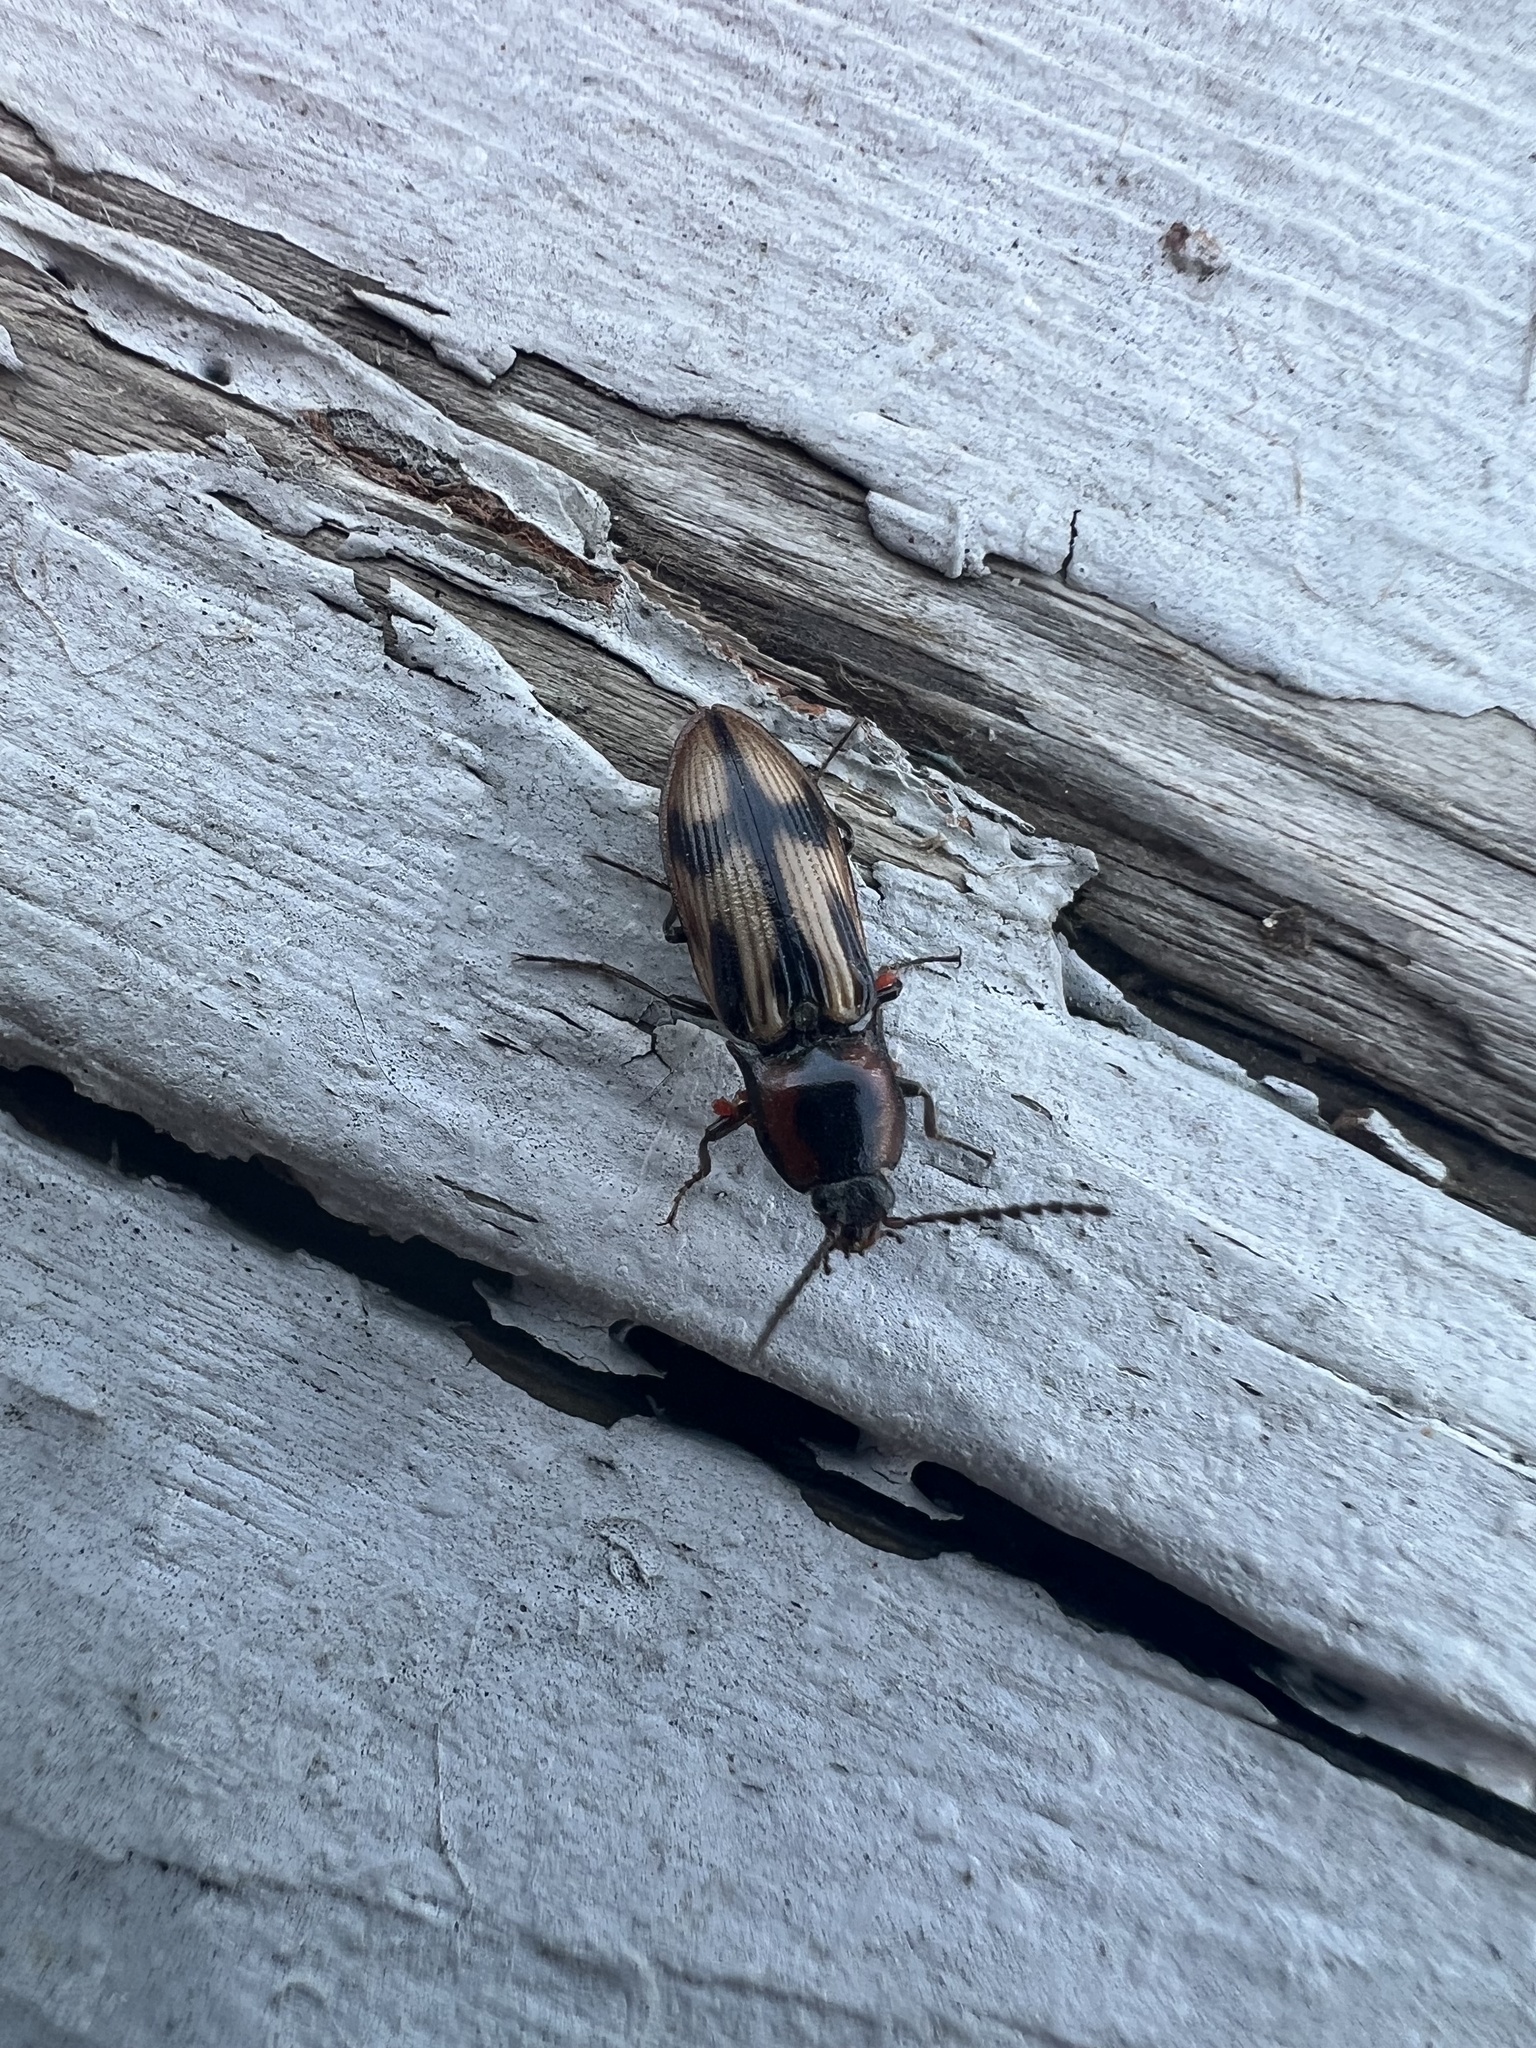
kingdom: Animalia
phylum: Arthropoda
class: Insecta
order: Coleoptera
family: Elateridae
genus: Selatosomus
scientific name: Selatosomus pulcher
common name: Noble click beetle
